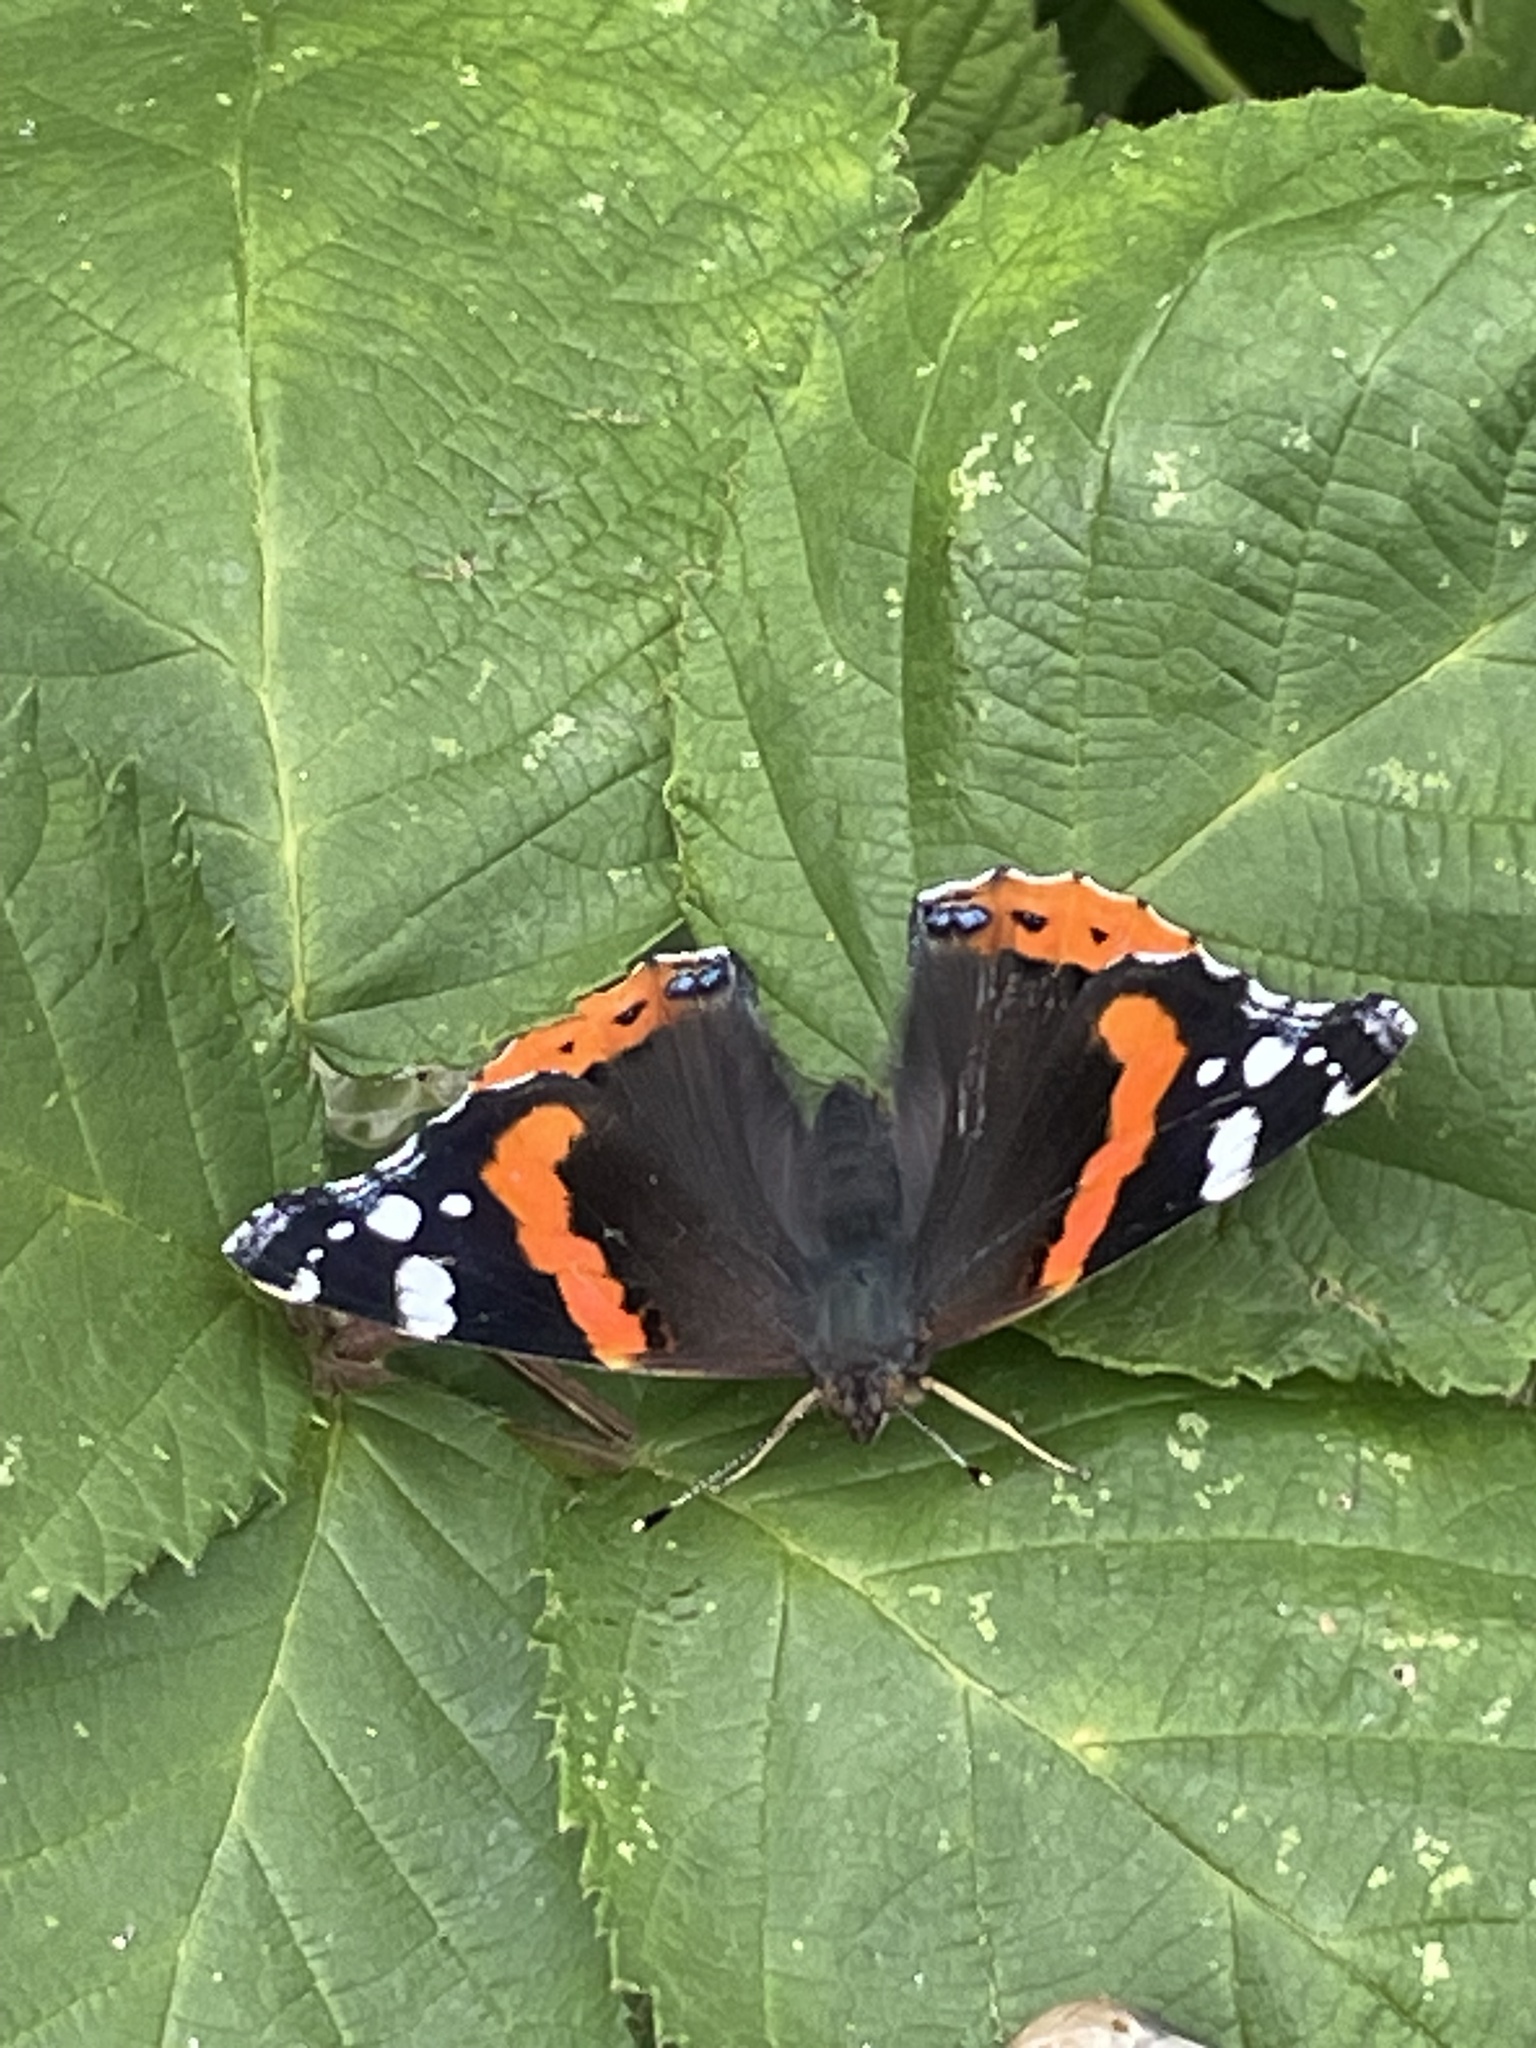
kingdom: Animalia
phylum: Arthropoda
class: Insecta
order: Lepidoptera
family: Nymphalidae
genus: Vanessa
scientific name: Vanessa atalanta
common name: Red admiral
